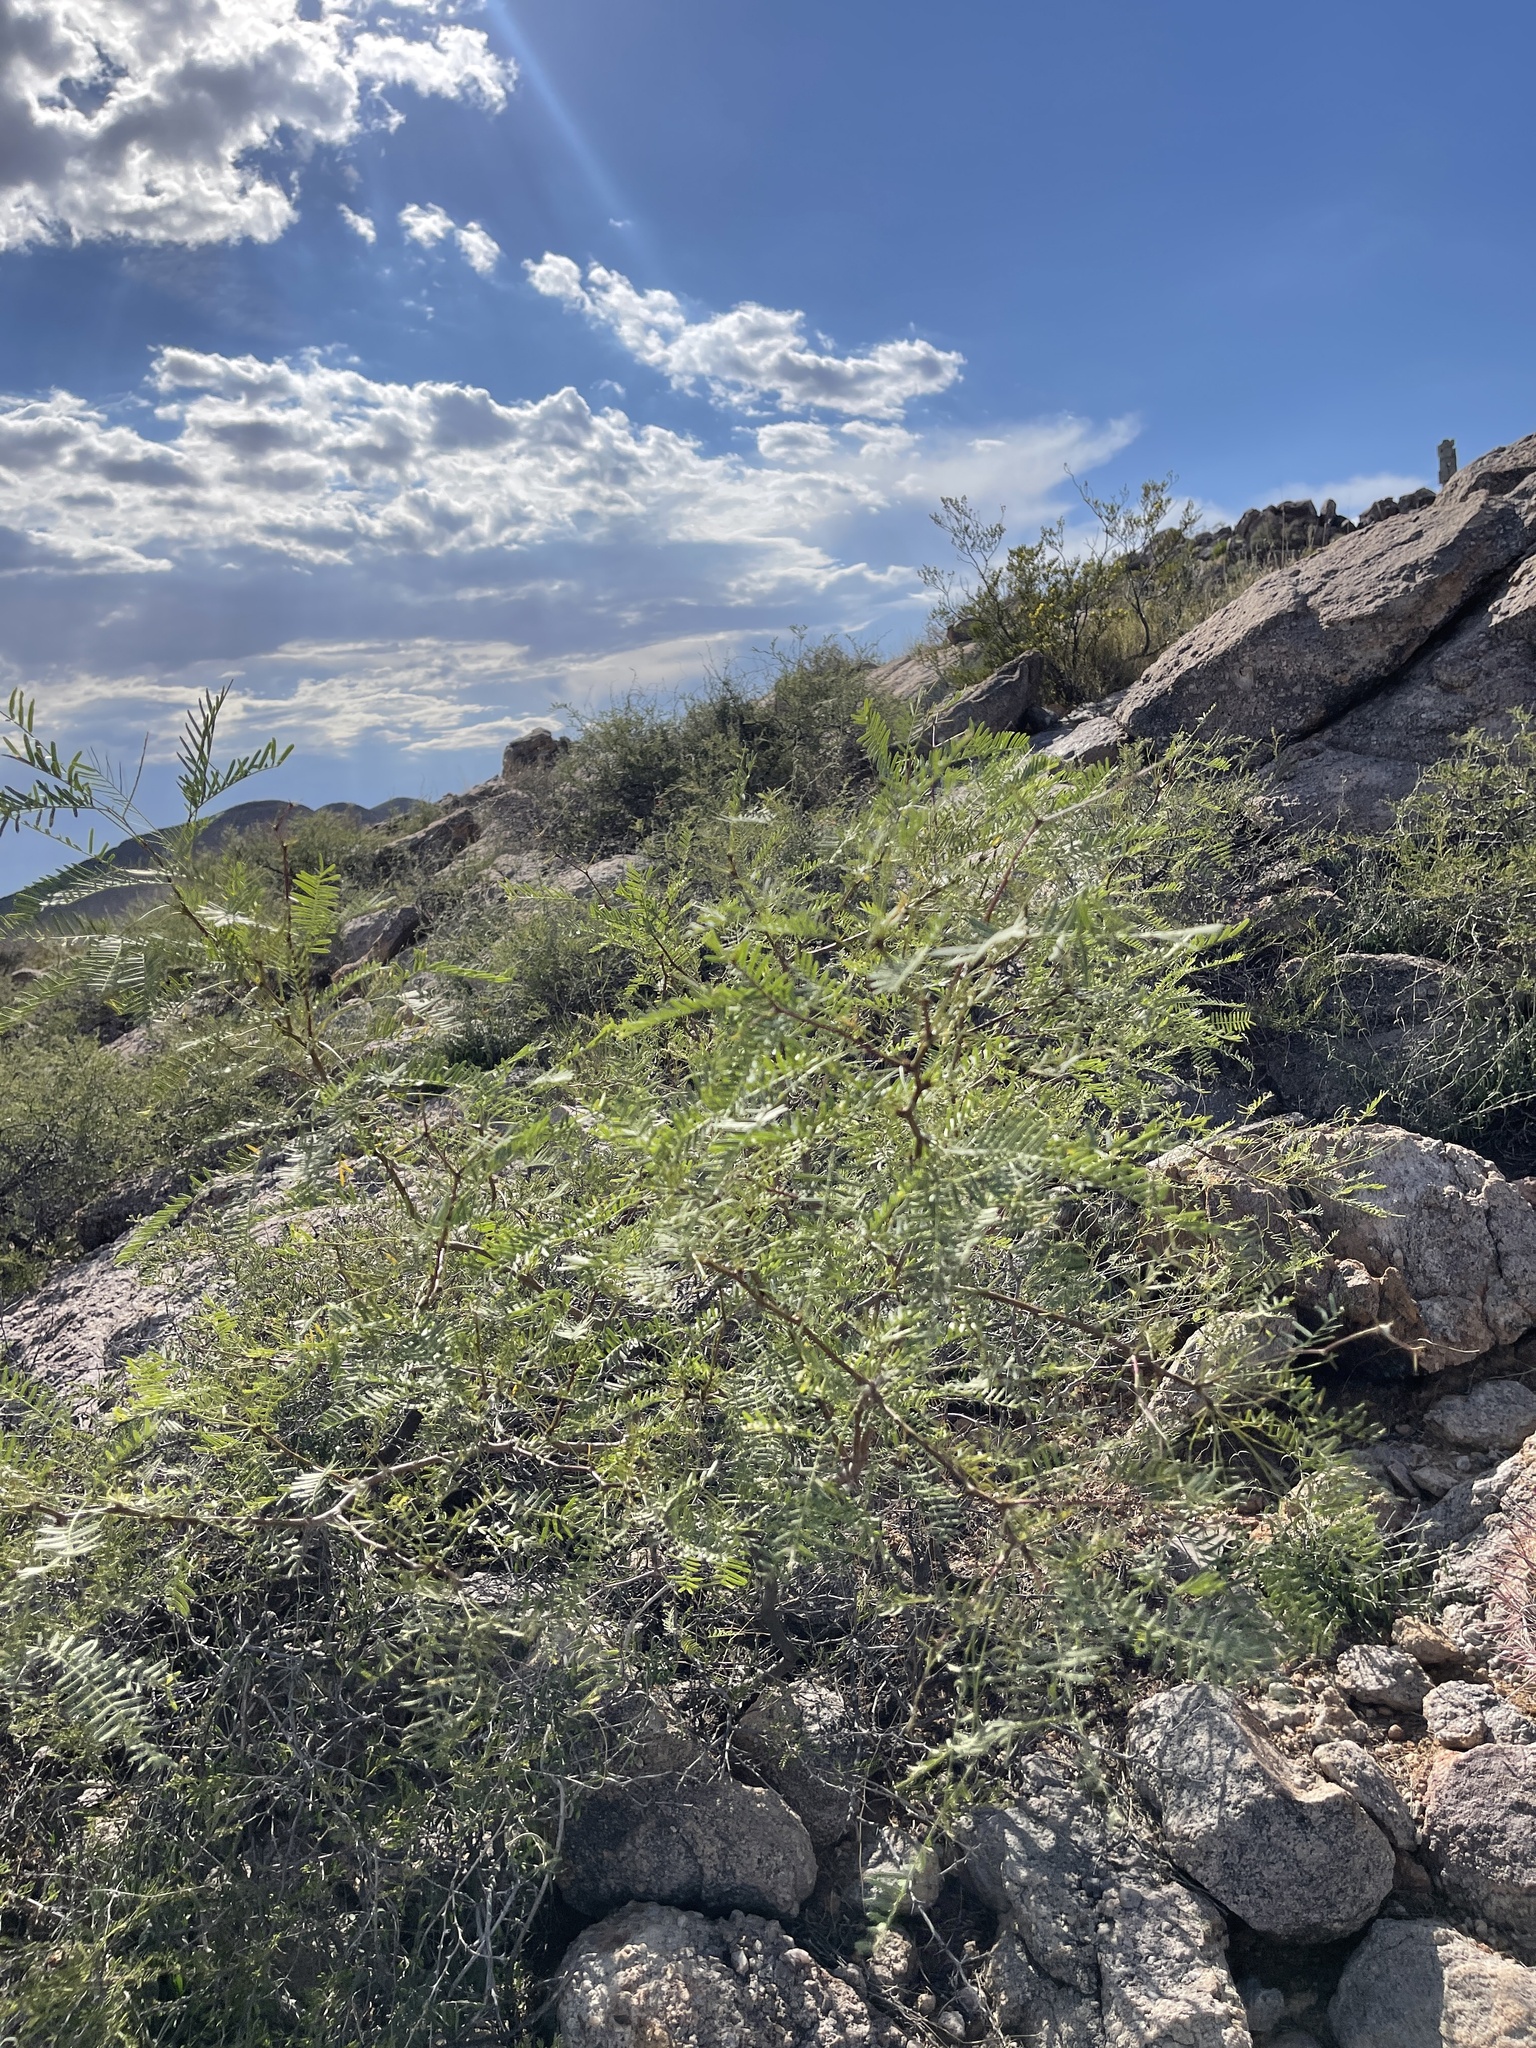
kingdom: Plantae
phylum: Tracheophyta
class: Magnoliopsida
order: Fabales
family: Fabaceae
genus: Prosopis
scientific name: Prosopis glandulosa
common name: Honey mesquite
